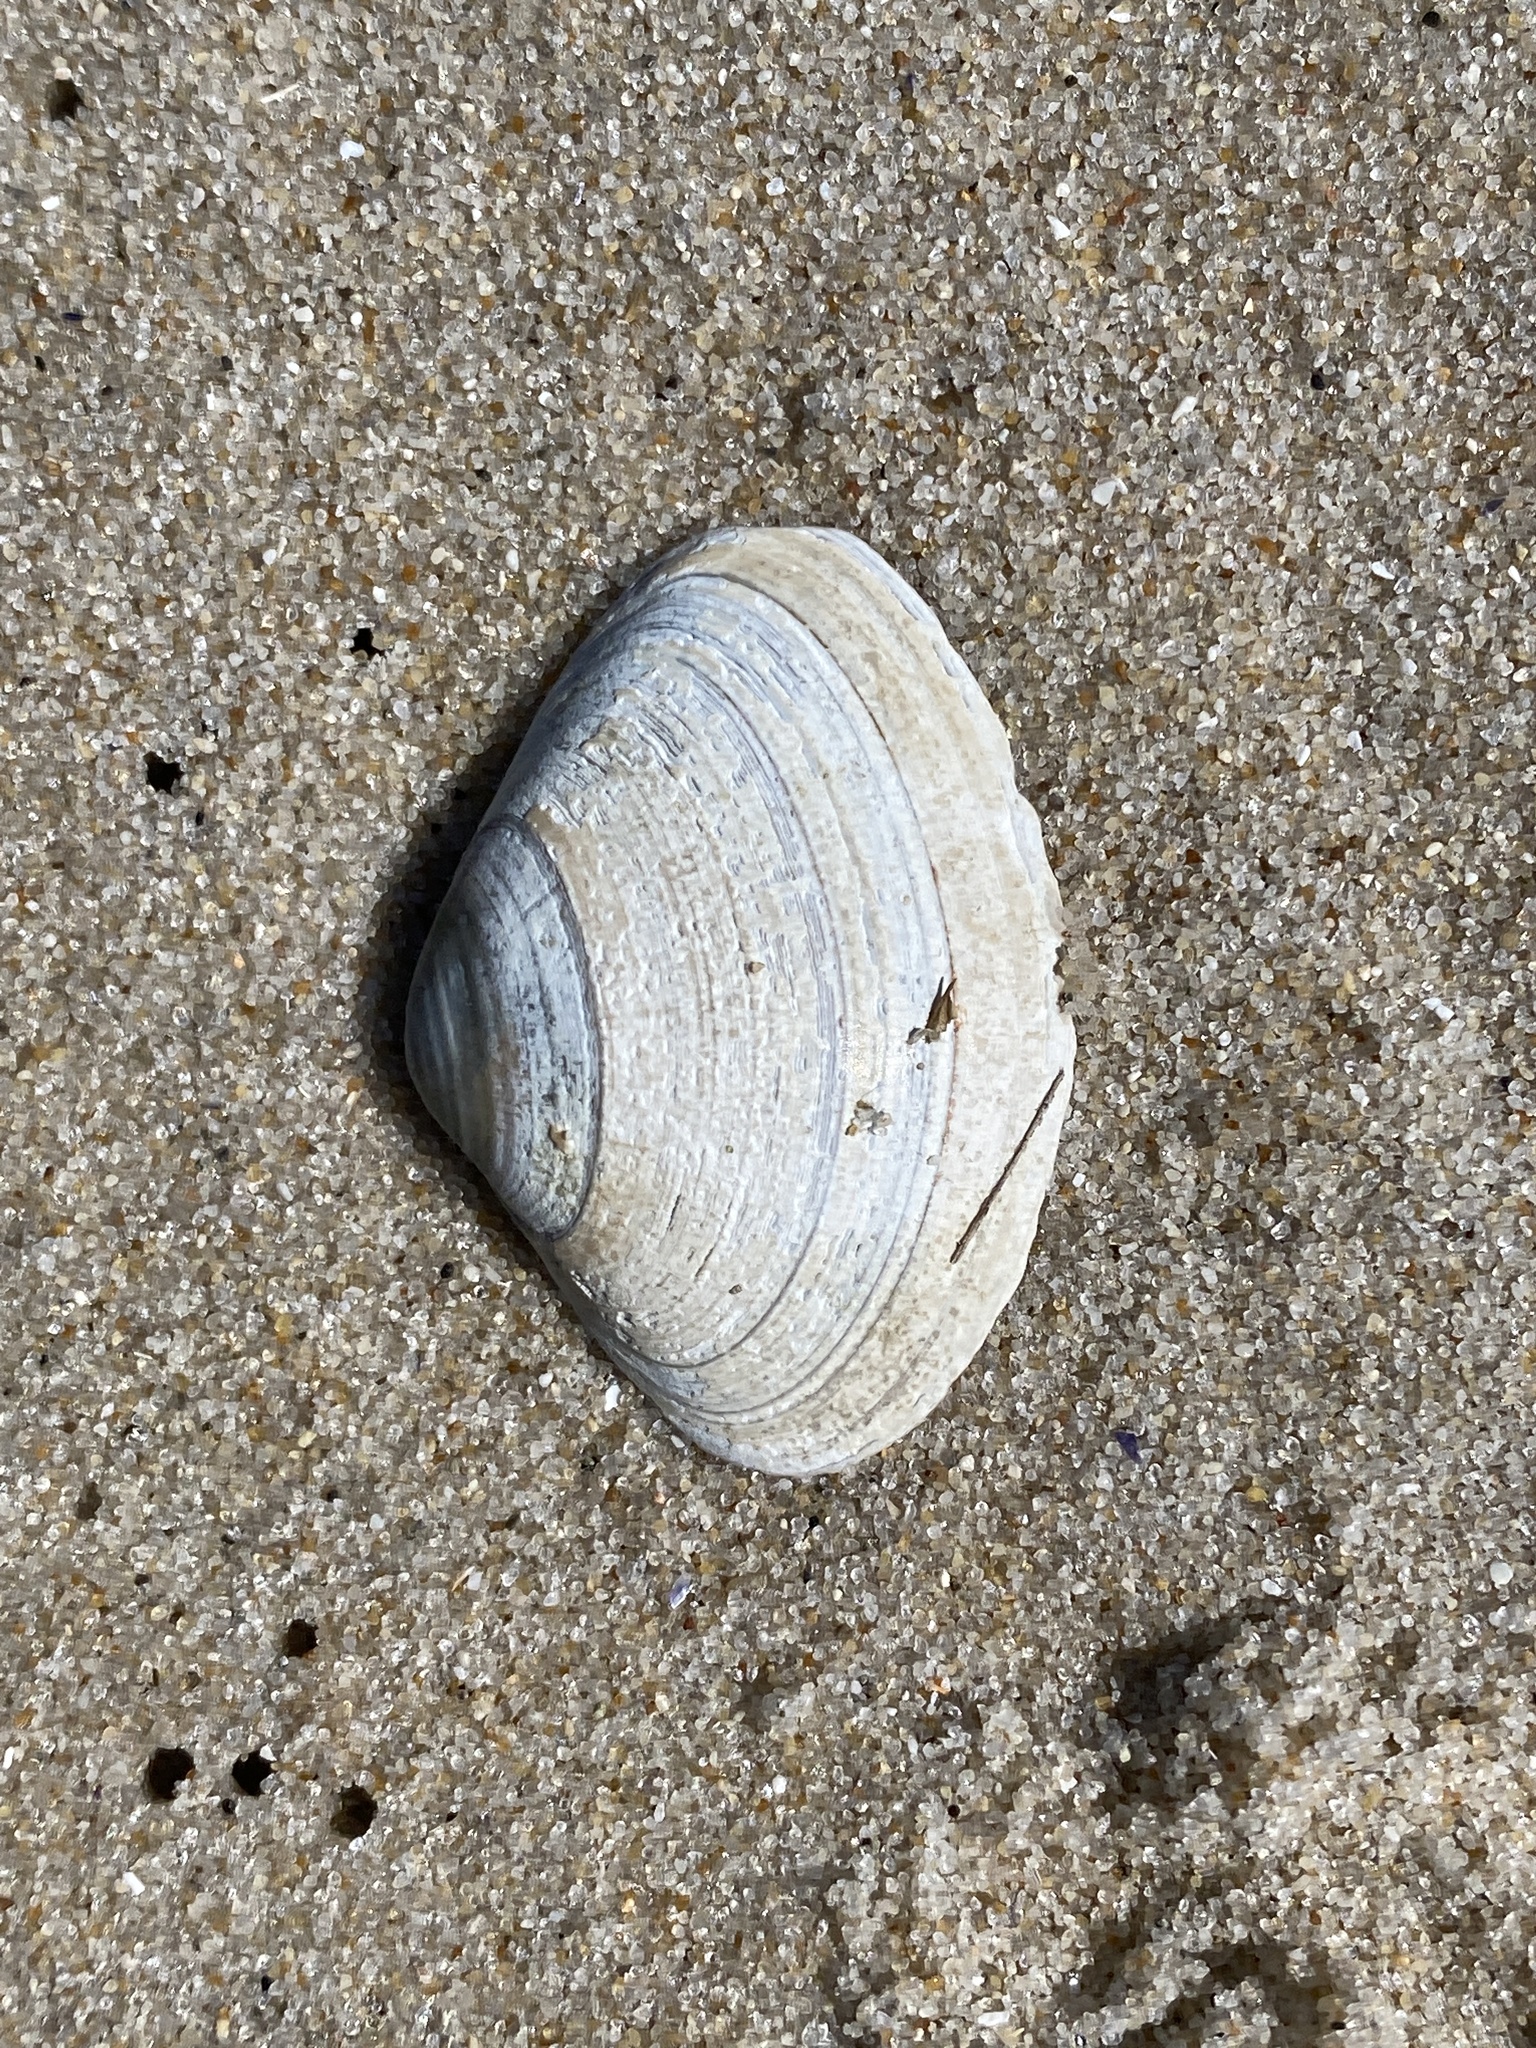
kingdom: Animalia
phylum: Mollusca
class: Bivalvia
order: Venerida
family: Mactridae
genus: Spisula
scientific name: Spisula solidissima
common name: Atlantic surf clam
